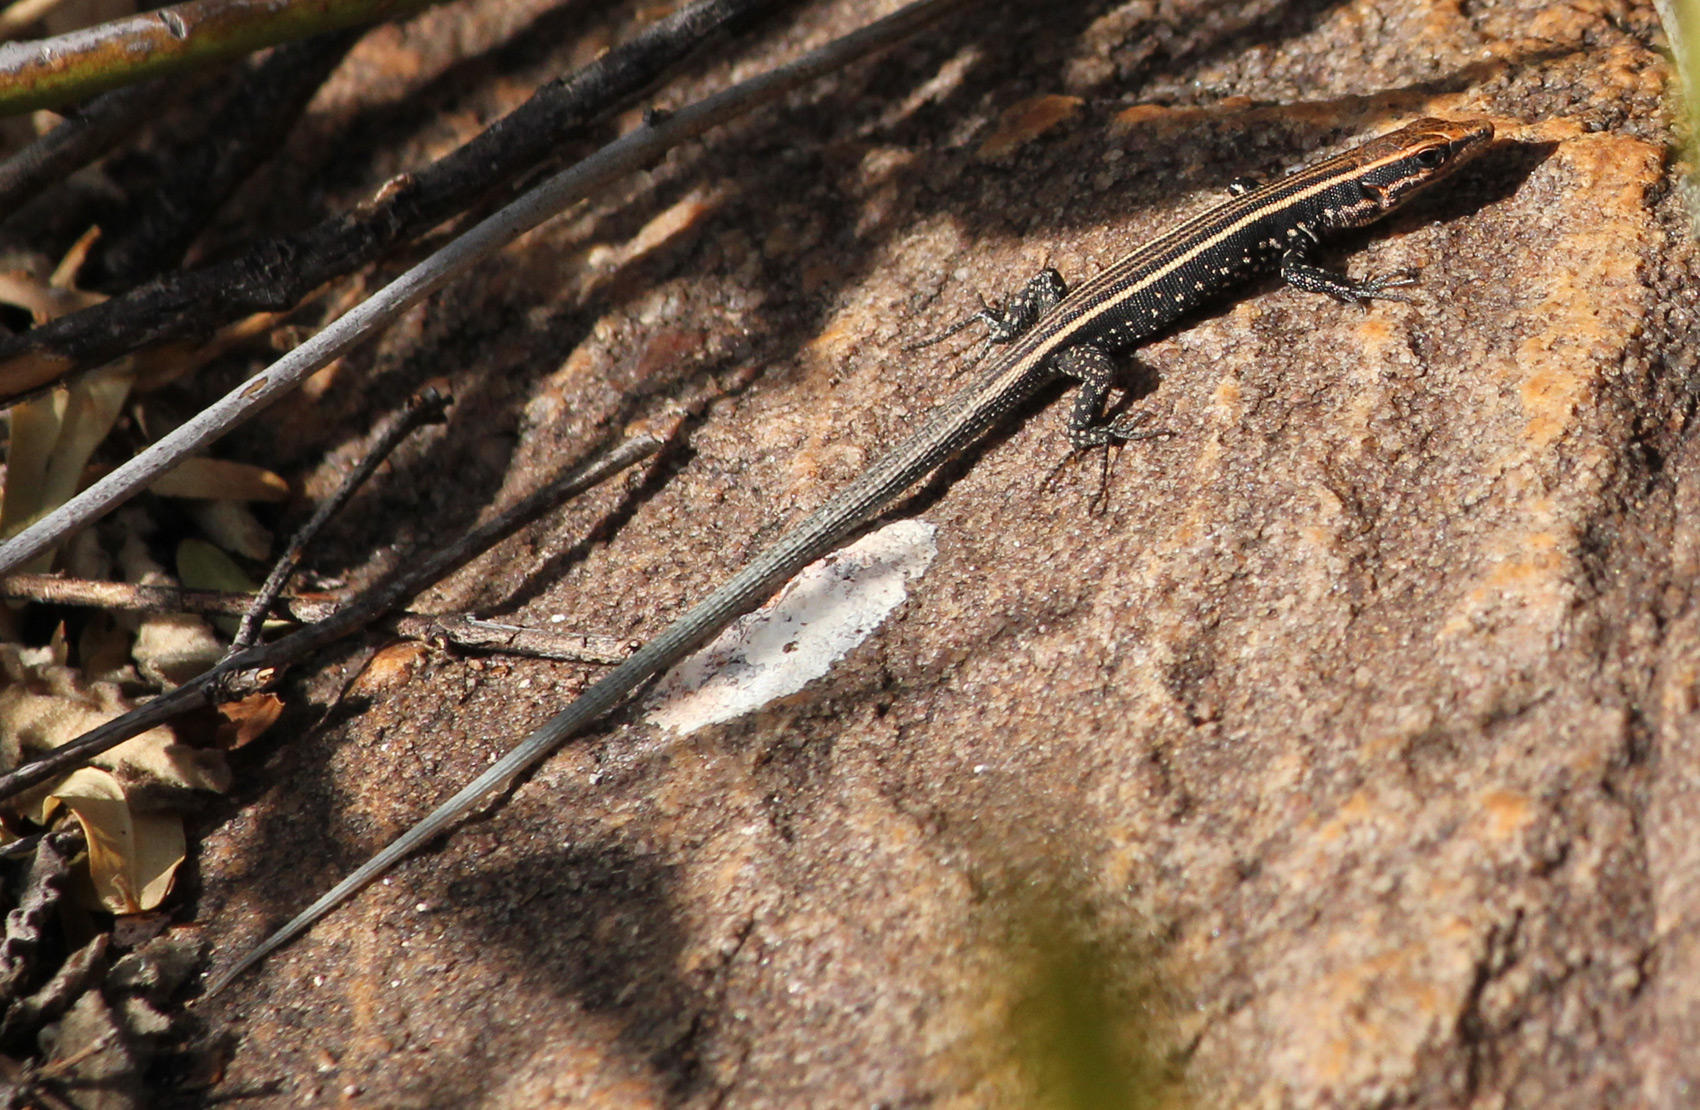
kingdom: Animalia
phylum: Chordata
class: Squamata
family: Lacertidae
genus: Vhembelacerta
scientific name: Vhembelacerta rupicola
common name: Soutpansberg rock lizard
